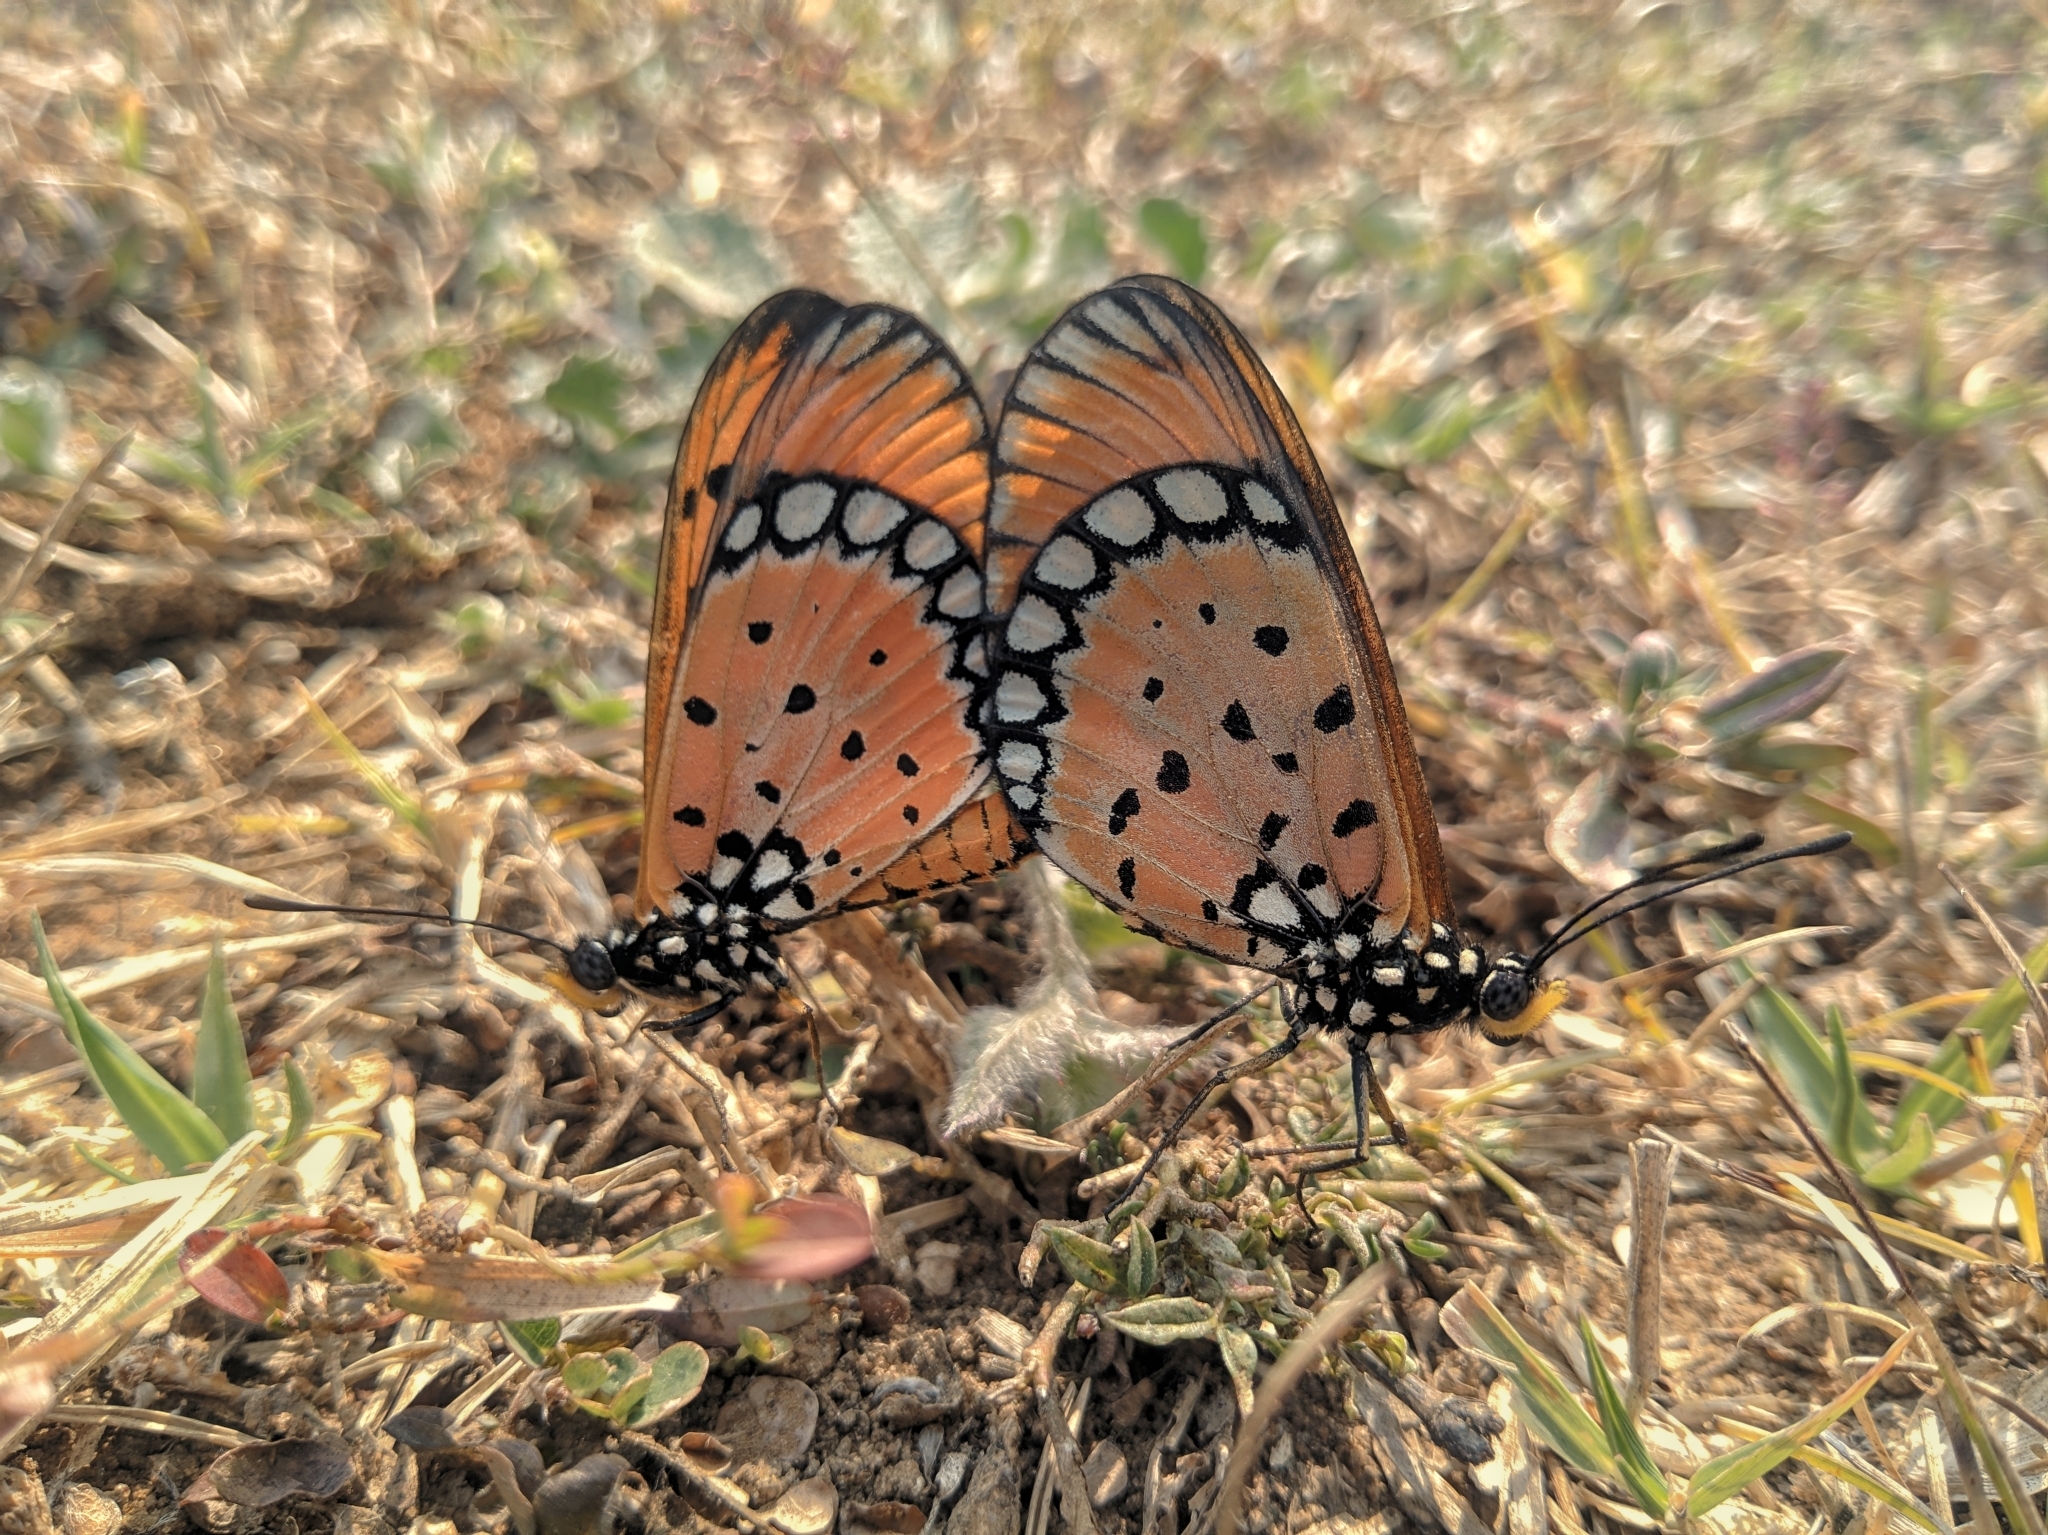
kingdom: Animalia
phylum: Arthropoda
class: Insecta
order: Lepidoptera
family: Nymphalidae
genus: Acraea
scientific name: Acraea terpsicore
